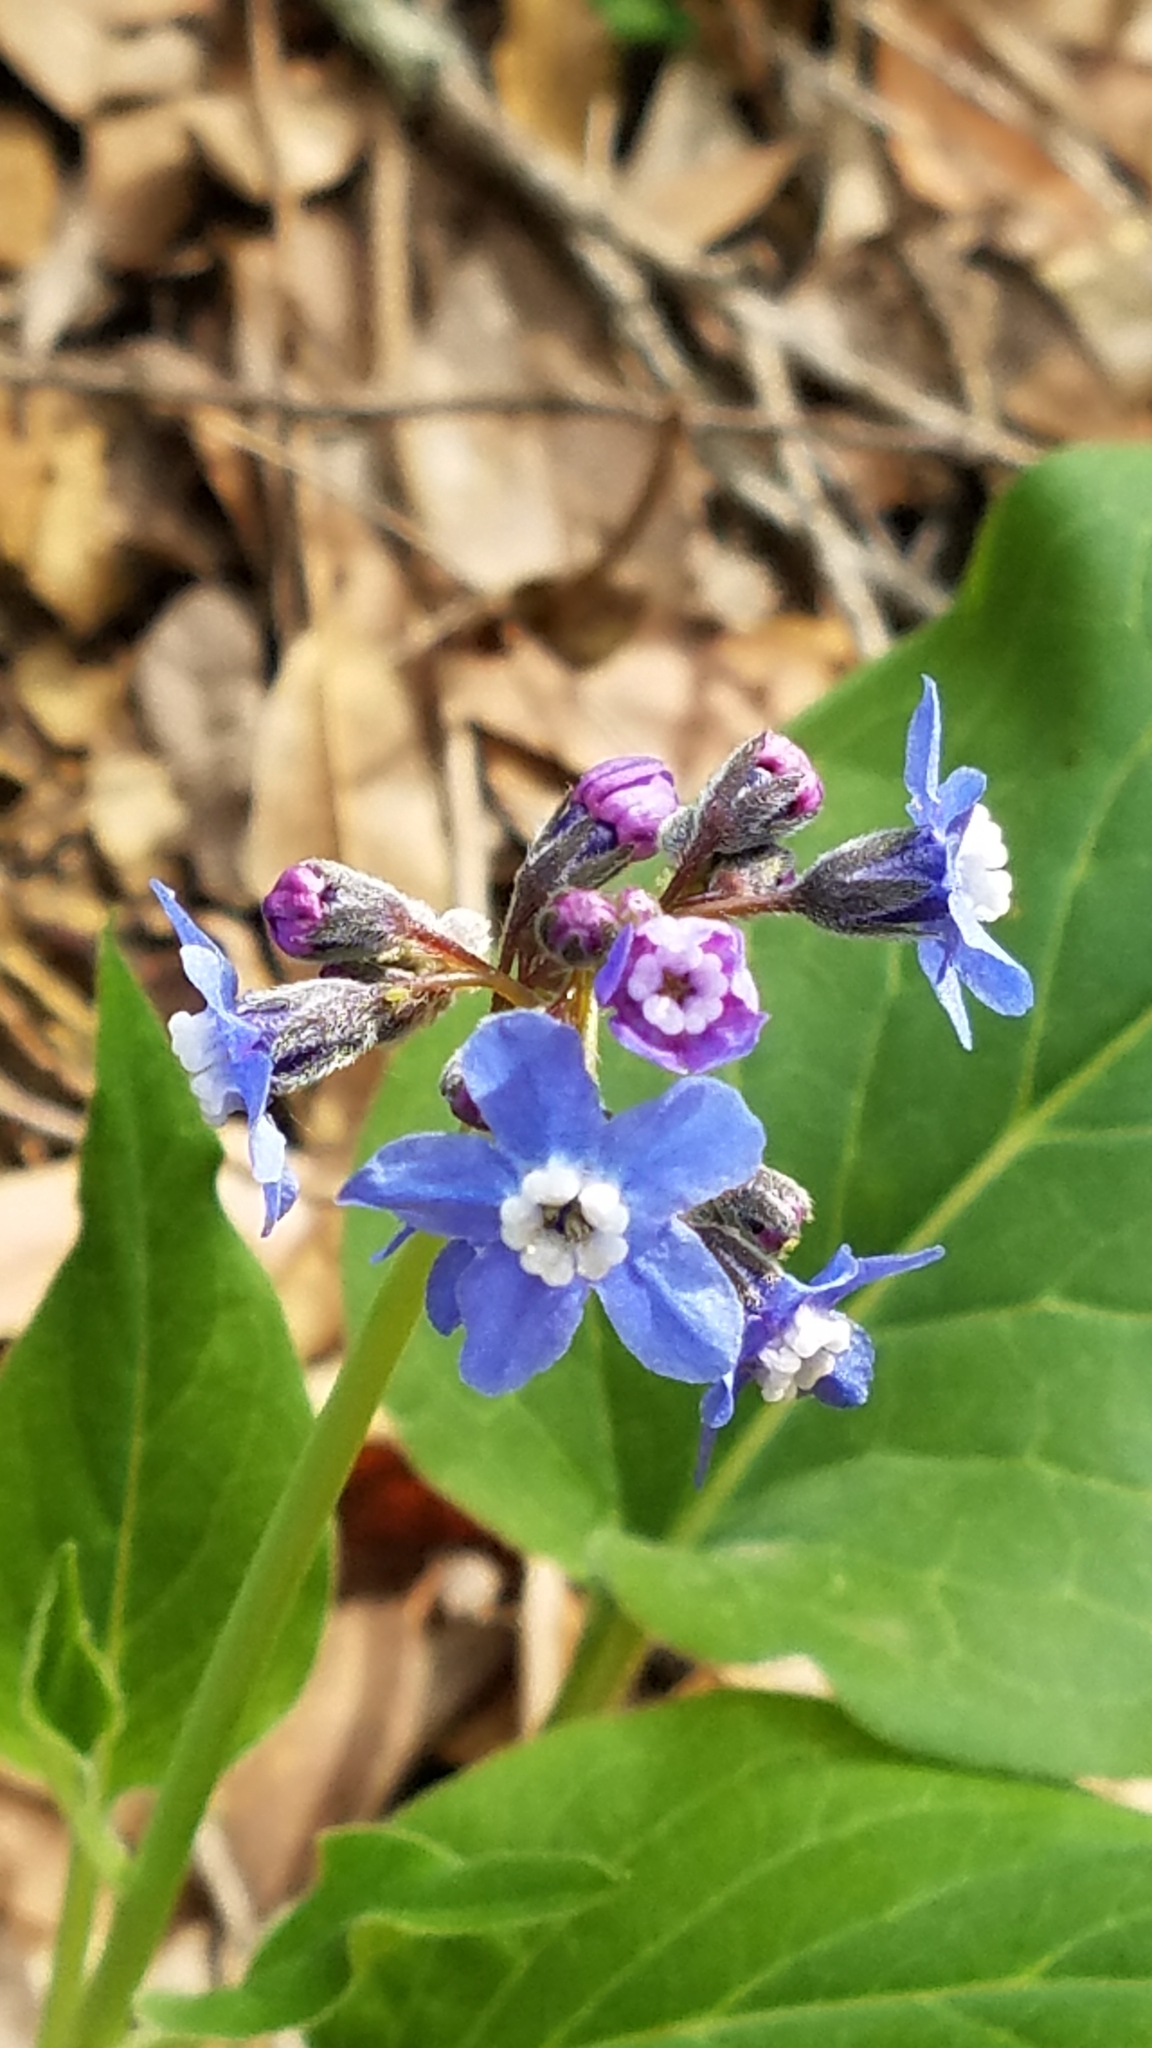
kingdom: Plantae
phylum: Tracheophyta
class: Magnoliopsida
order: Boraginales
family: Boraginaceae
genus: Adelinia
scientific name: Adelinia grande
